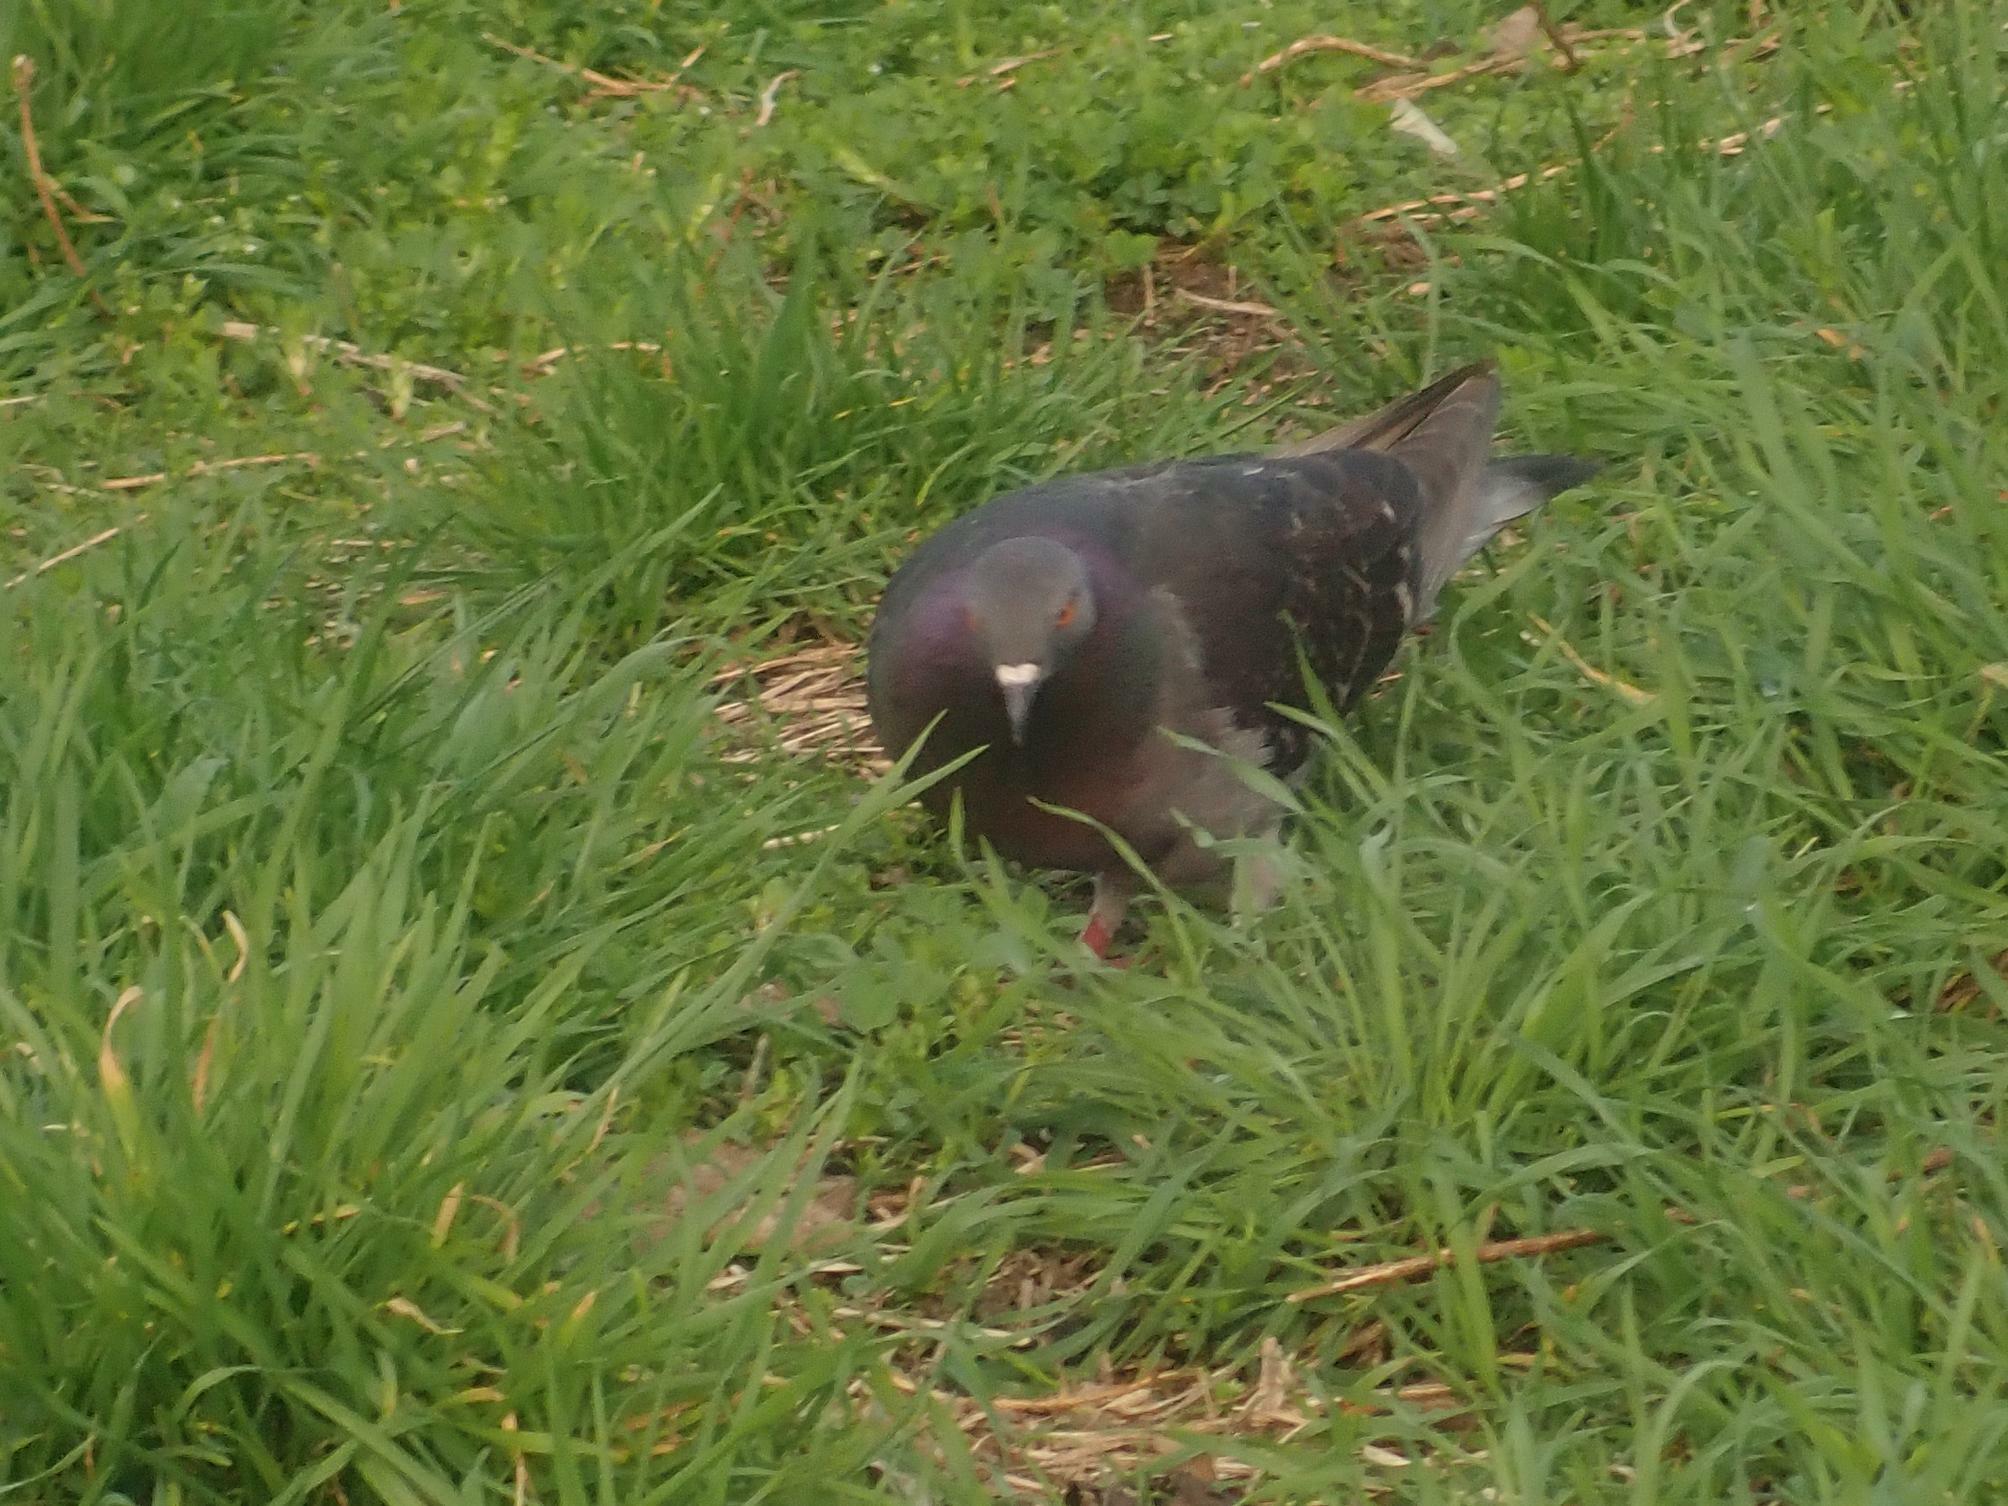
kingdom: Animalia
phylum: Chordata
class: Aves
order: Columbiformes
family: Columbidae
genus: Columba
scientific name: Columba livia
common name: Rock pigeon
